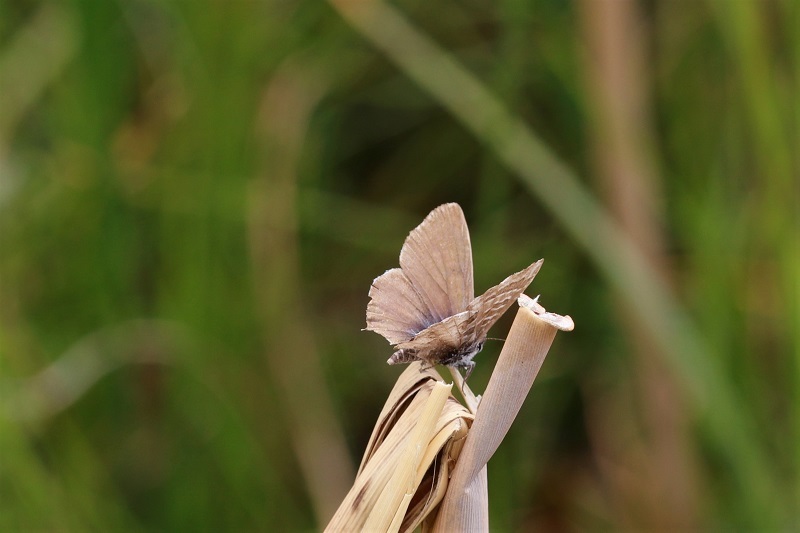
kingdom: Animalia
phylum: Arthropoda
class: Insecta
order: Lepidoptera
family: Lycaenidae
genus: Cacyreus
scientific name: Cacyreus lingeus
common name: Bush bronze
